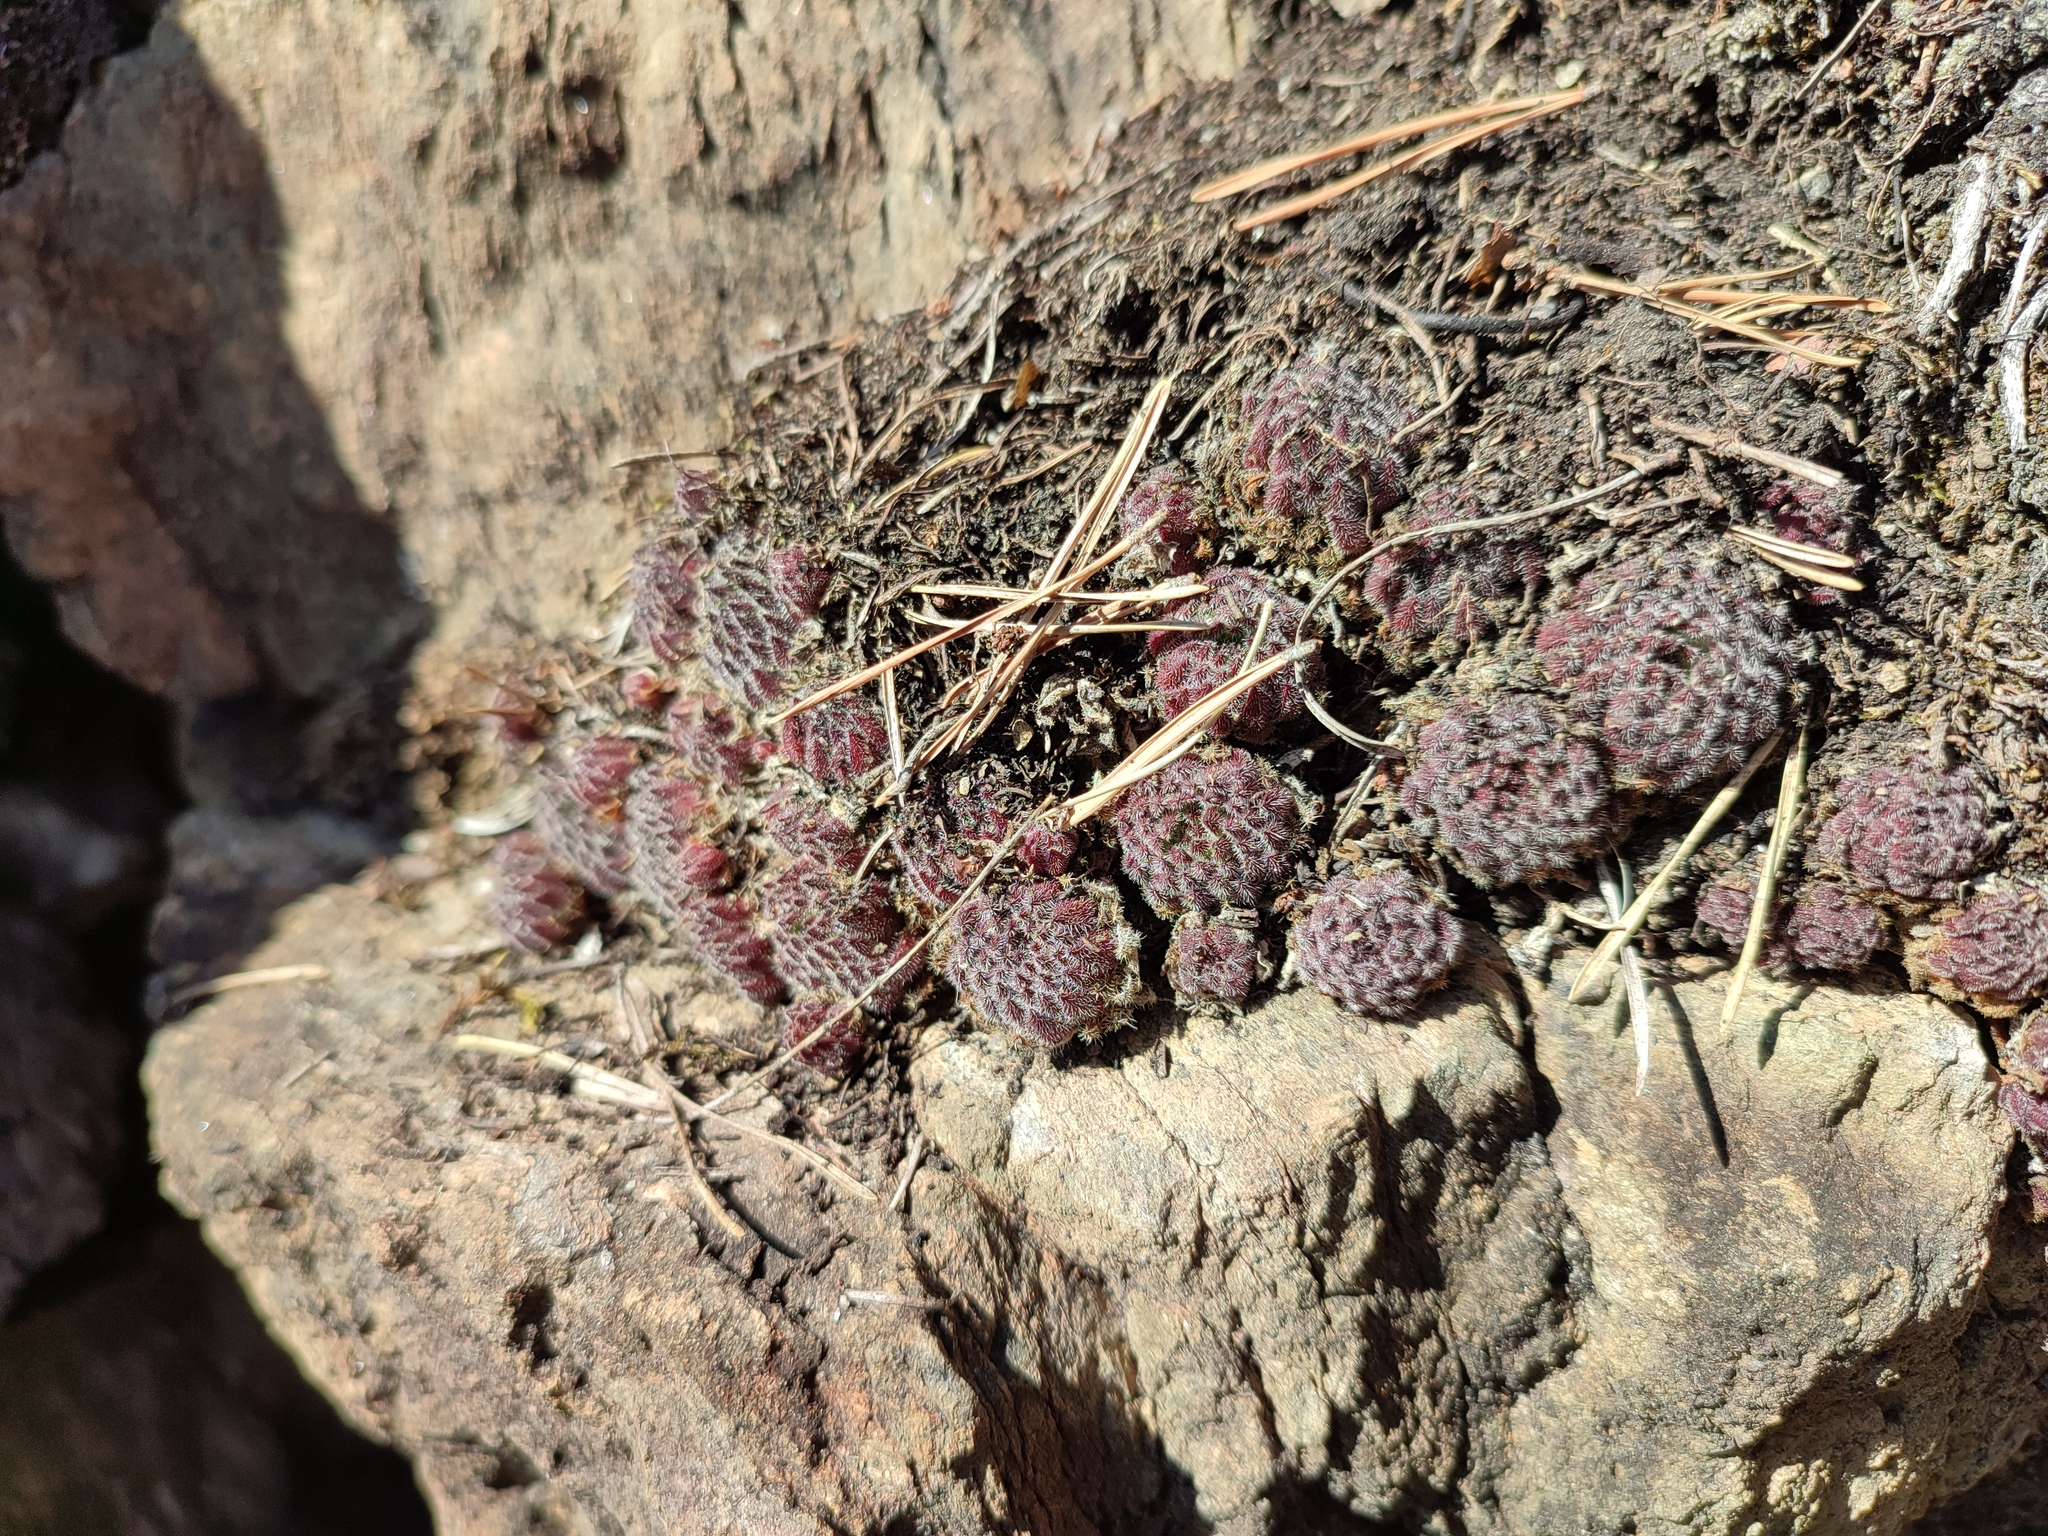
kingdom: Plantae
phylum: Tracheophyta
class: Magnoliopsida
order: Saxifragales
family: Crassulaceae
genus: Sempervivum
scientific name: Sempervivum pittonii
